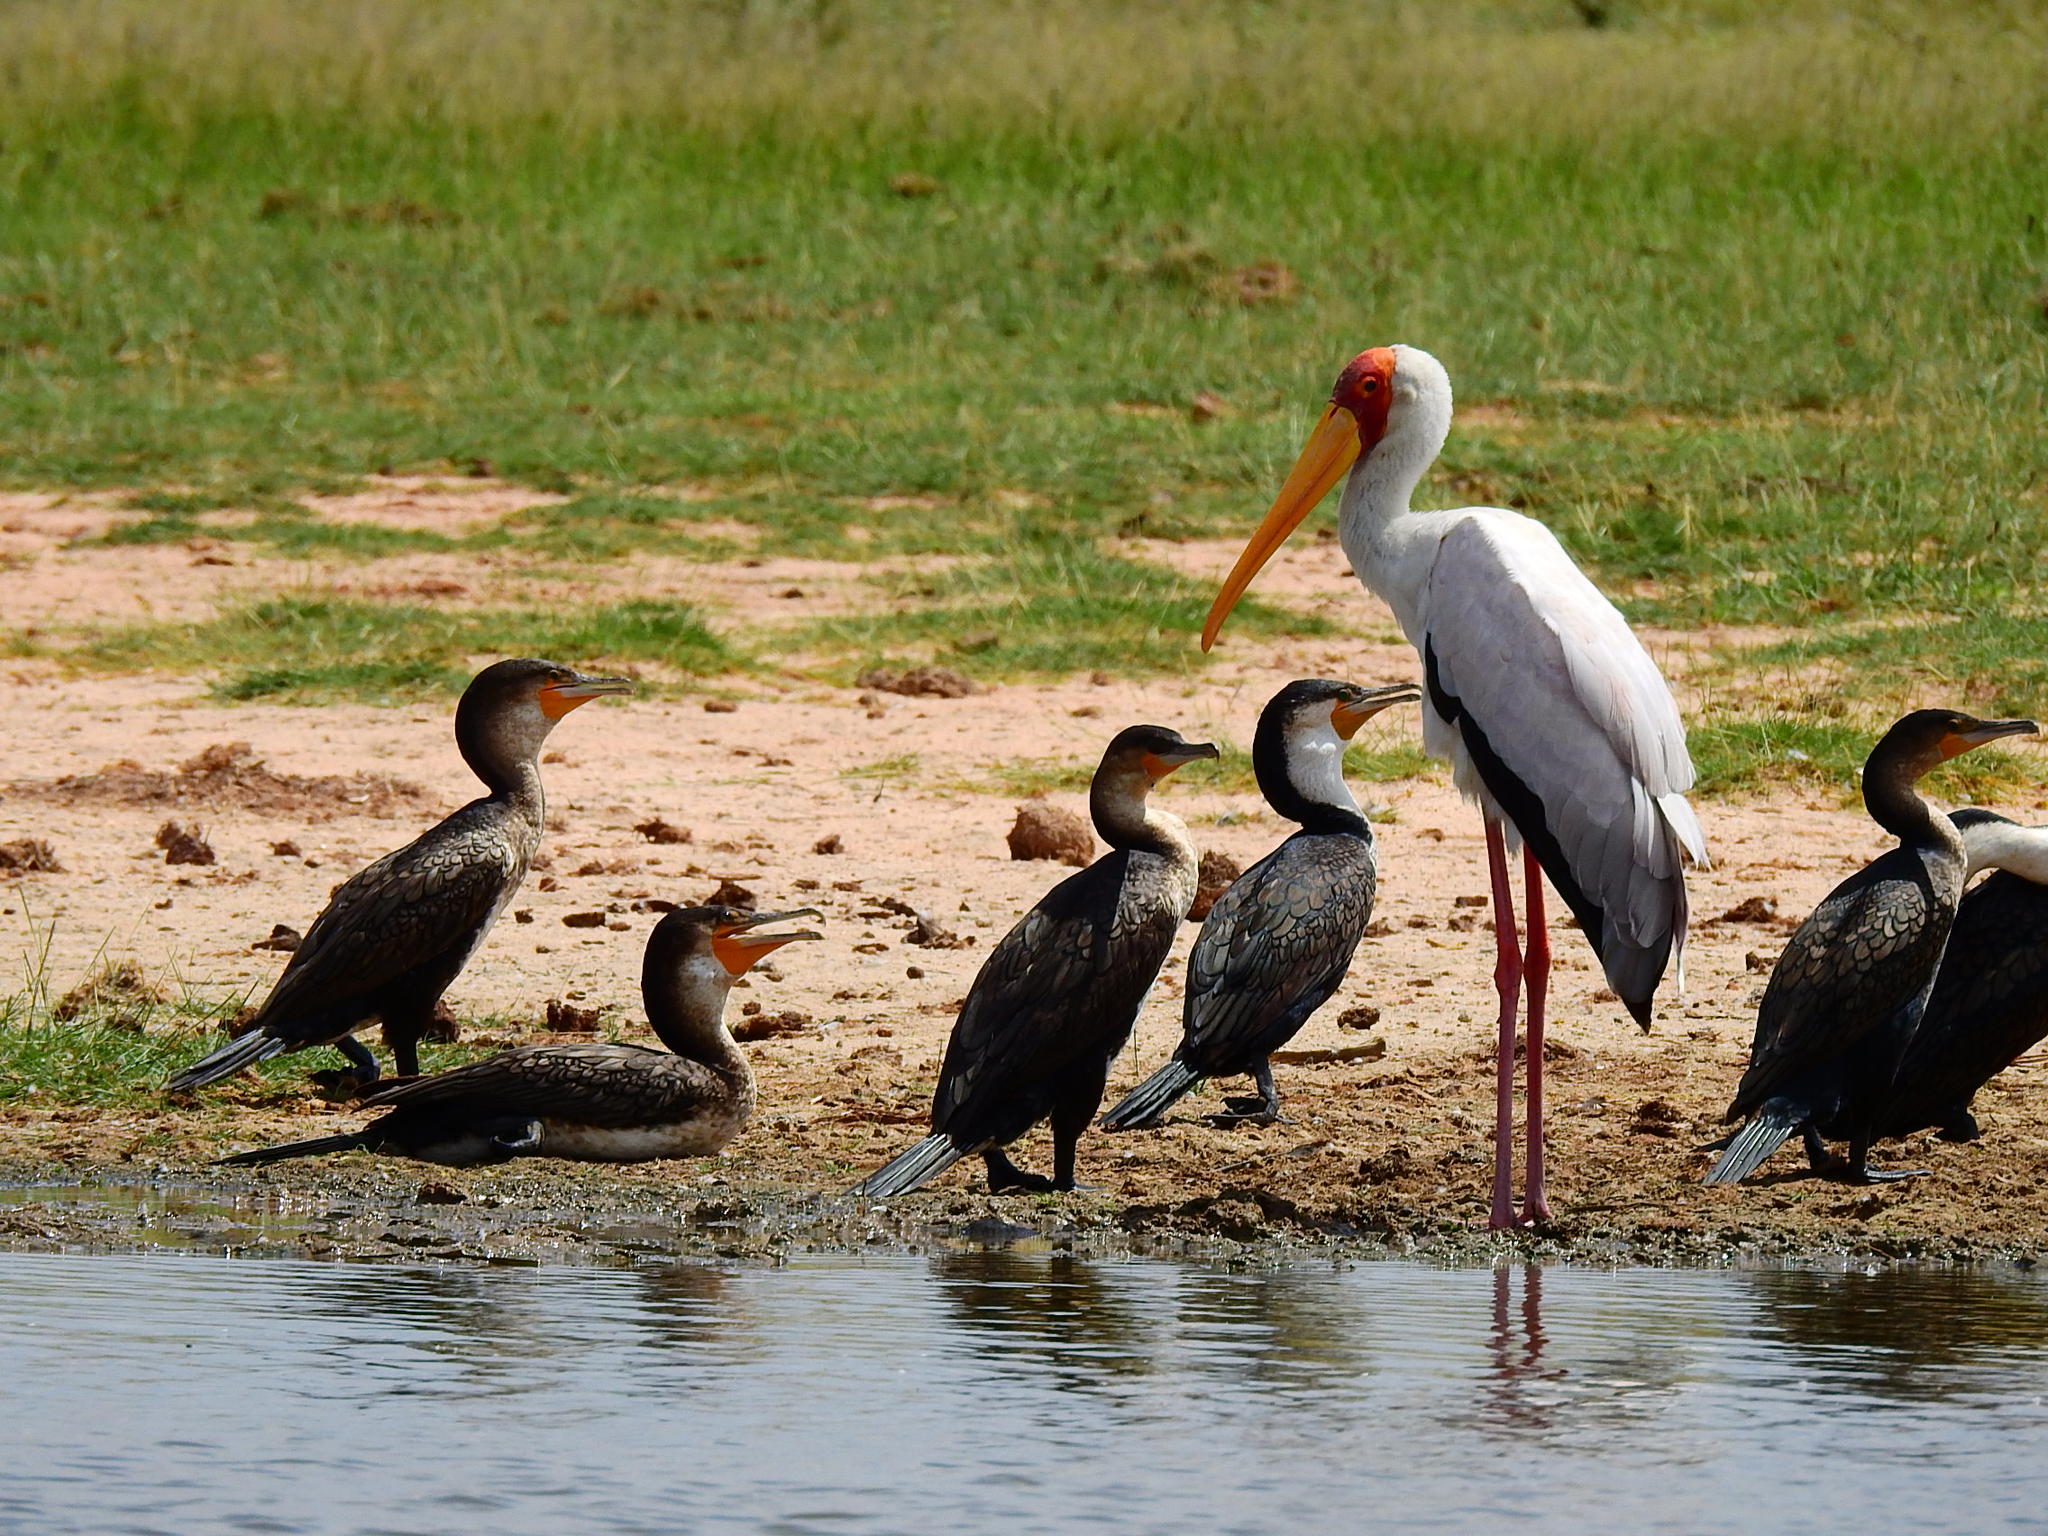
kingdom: Animalia
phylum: Chordata
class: Aves
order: Ciconiiformes
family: Ciconiidae
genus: Mycteria
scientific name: Mycteria ibis
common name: Yellow-billed stork
